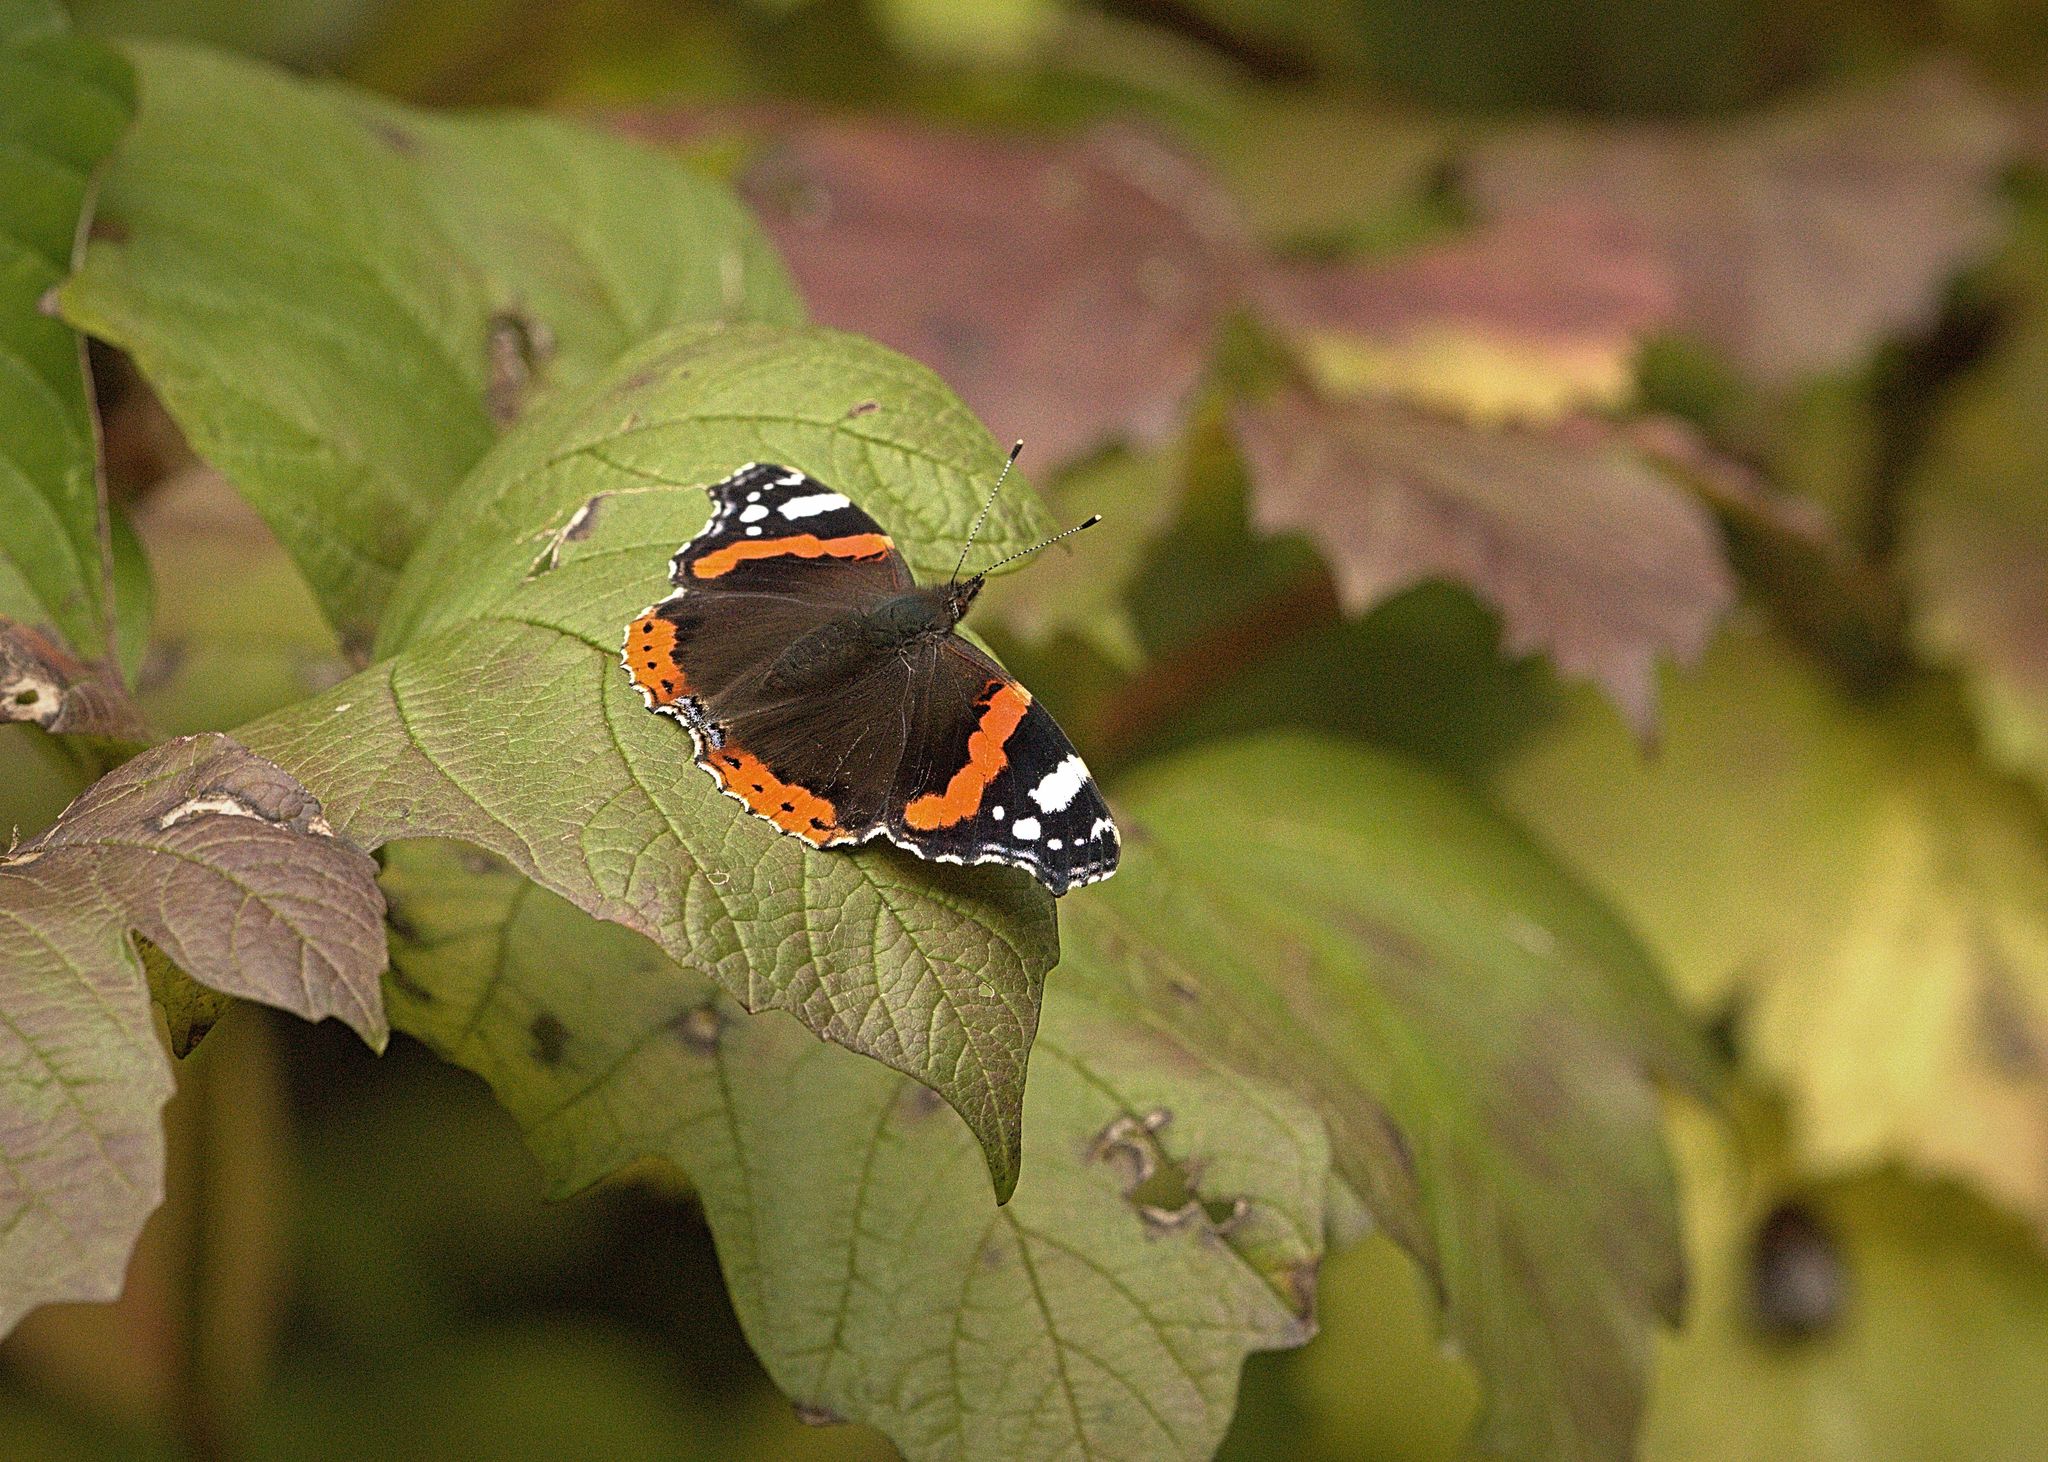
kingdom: Animalia
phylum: Arthropoda
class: Insecta
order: Lepidoptera
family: Nymphalidae
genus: Vanessa
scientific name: Vanessa atalanta
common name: Red admiral
